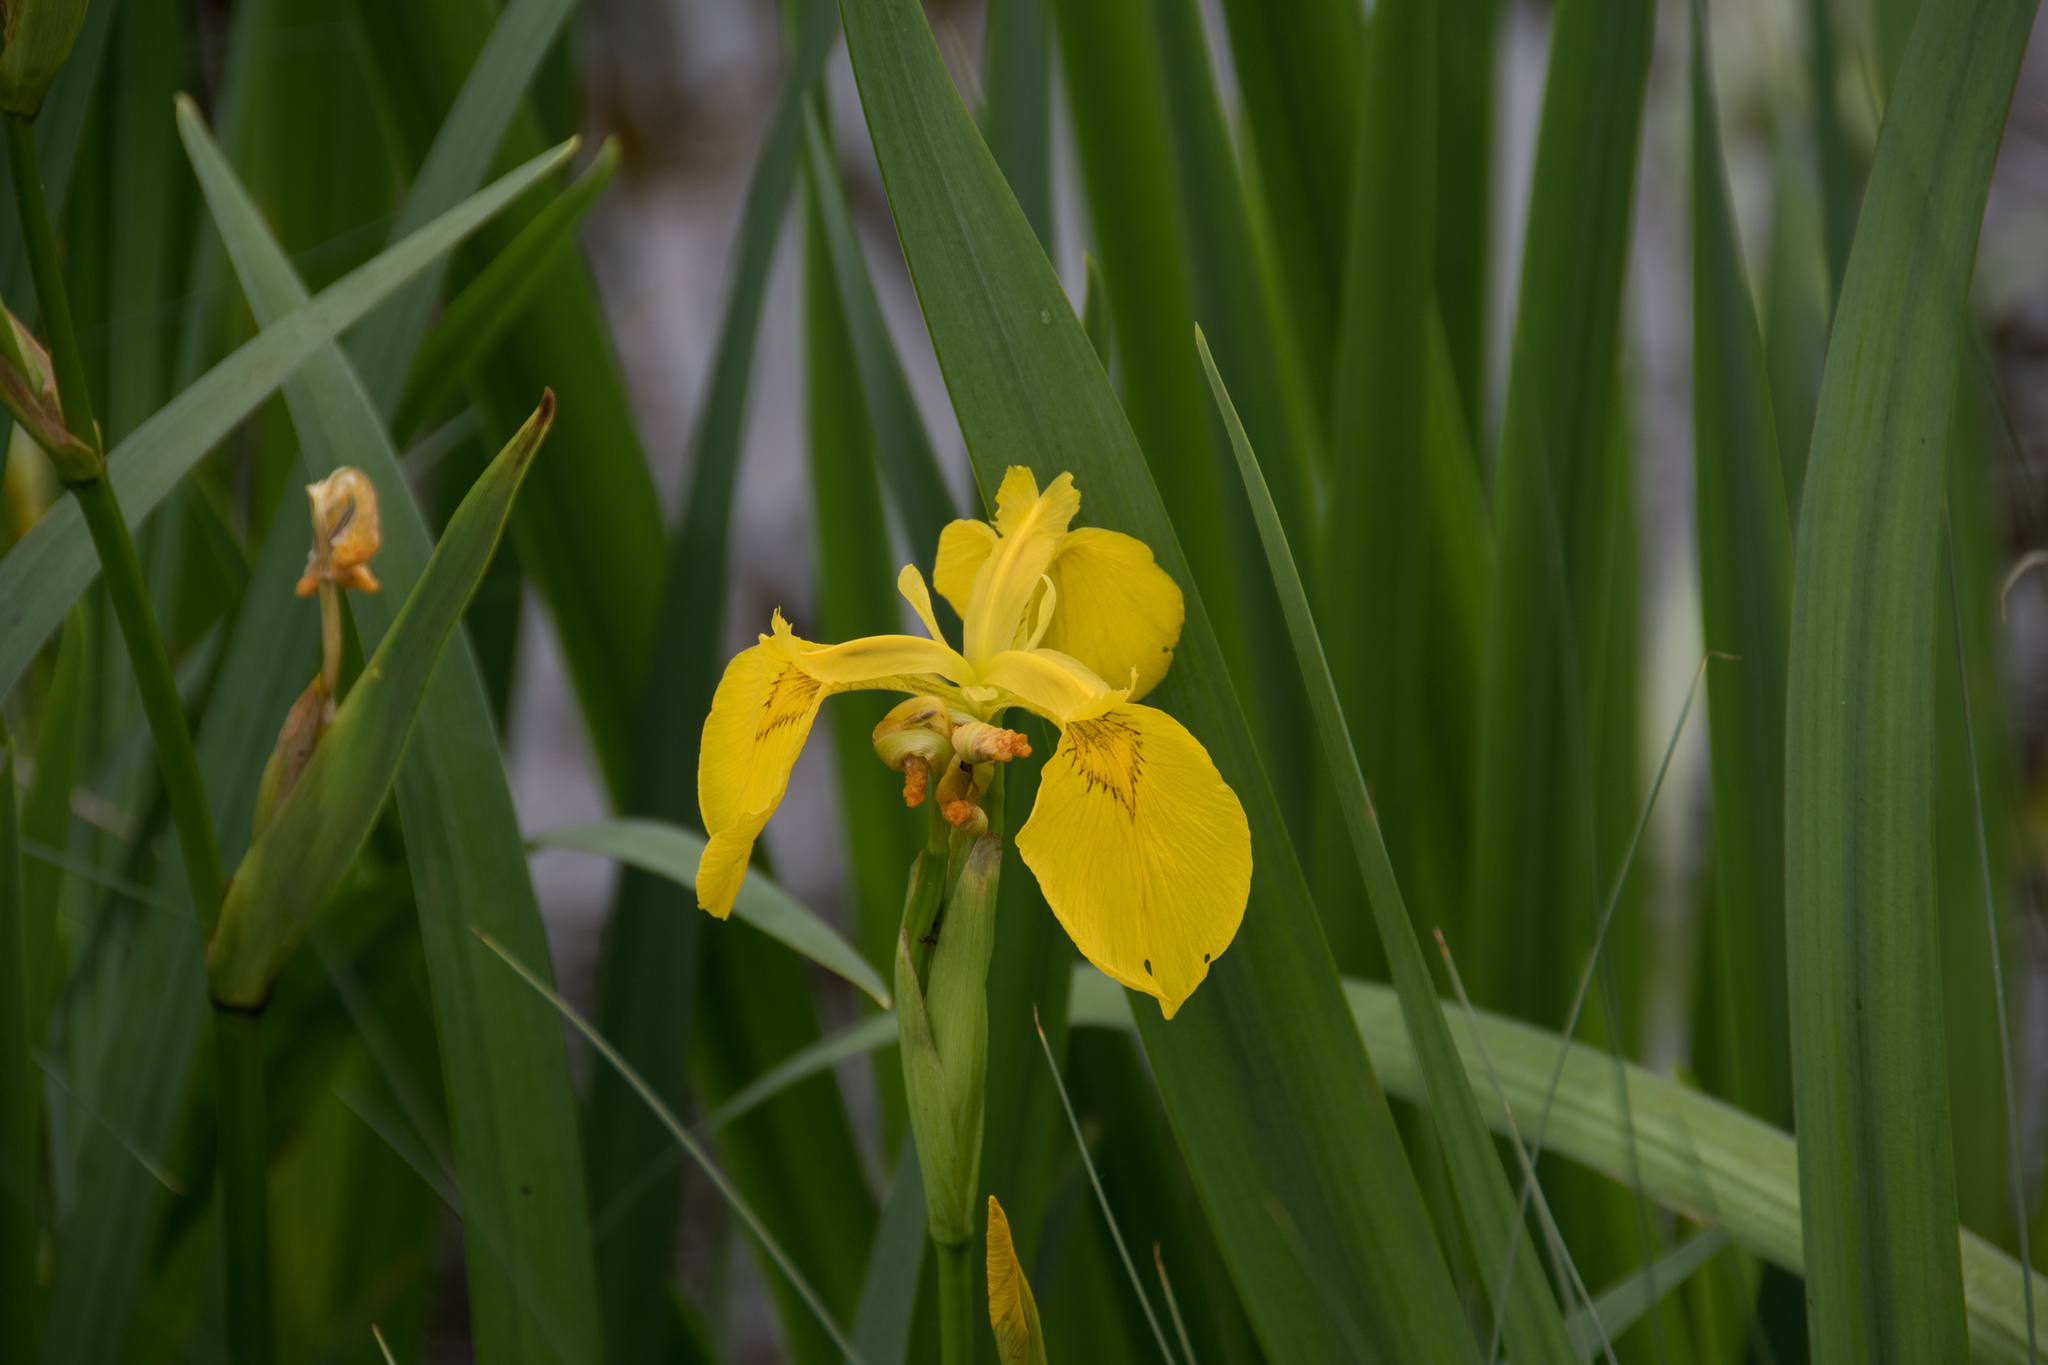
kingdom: Plantae
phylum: Tracheophyta
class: Liliopsida
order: Asparagales
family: Iridaceae
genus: Iris
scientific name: Iris pseudacorus
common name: Yellow flag
